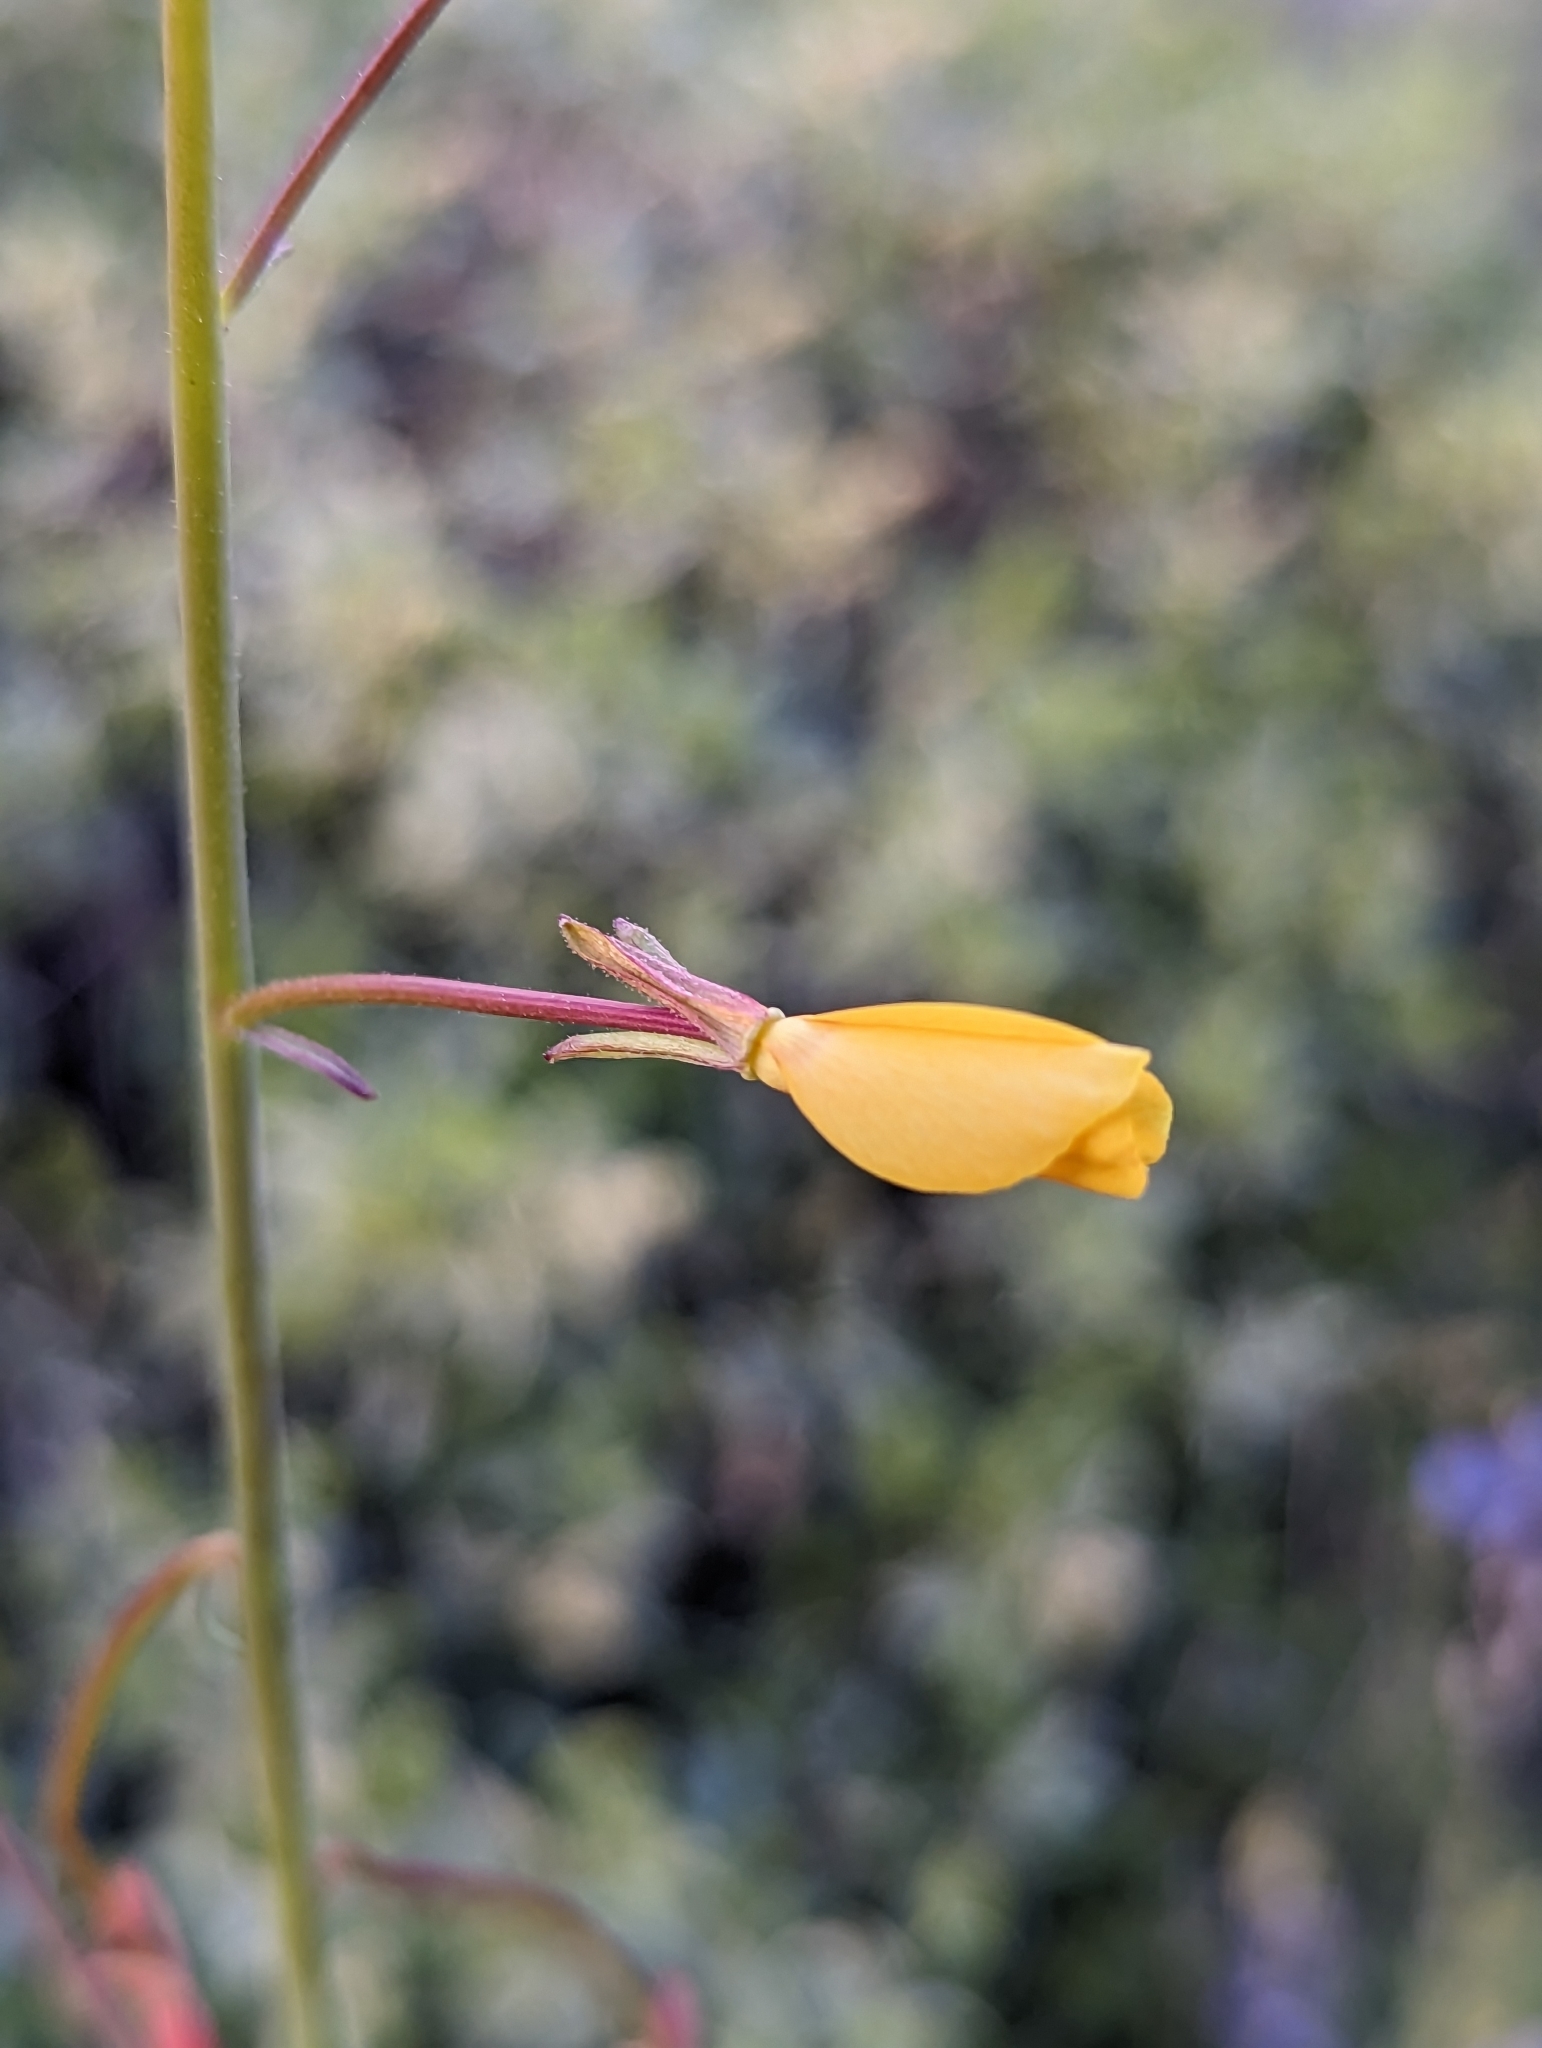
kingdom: Plantae
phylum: Tracheophyta
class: Magnoliopsida
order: Myrtales
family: Onagraceae
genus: Eulobus
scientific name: Eulobus californicus
